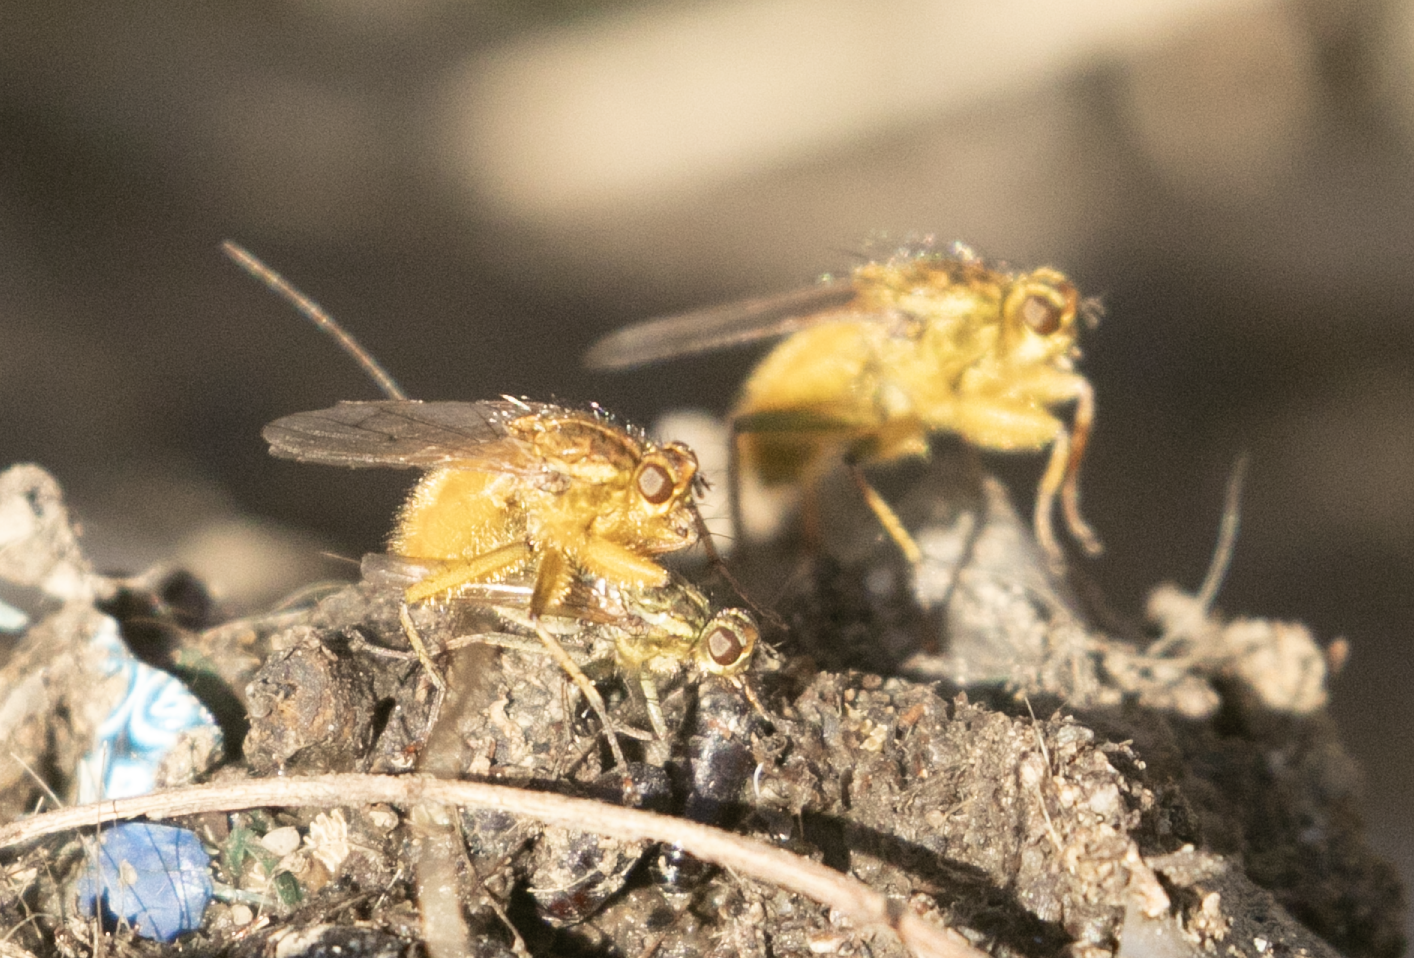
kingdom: Animalia
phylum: Arthropoda
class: Insecta
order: Diptera
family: Scathophagidae
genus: Scathophaga
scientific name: Scathophaga stercoraria
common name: Yellow dung fly
